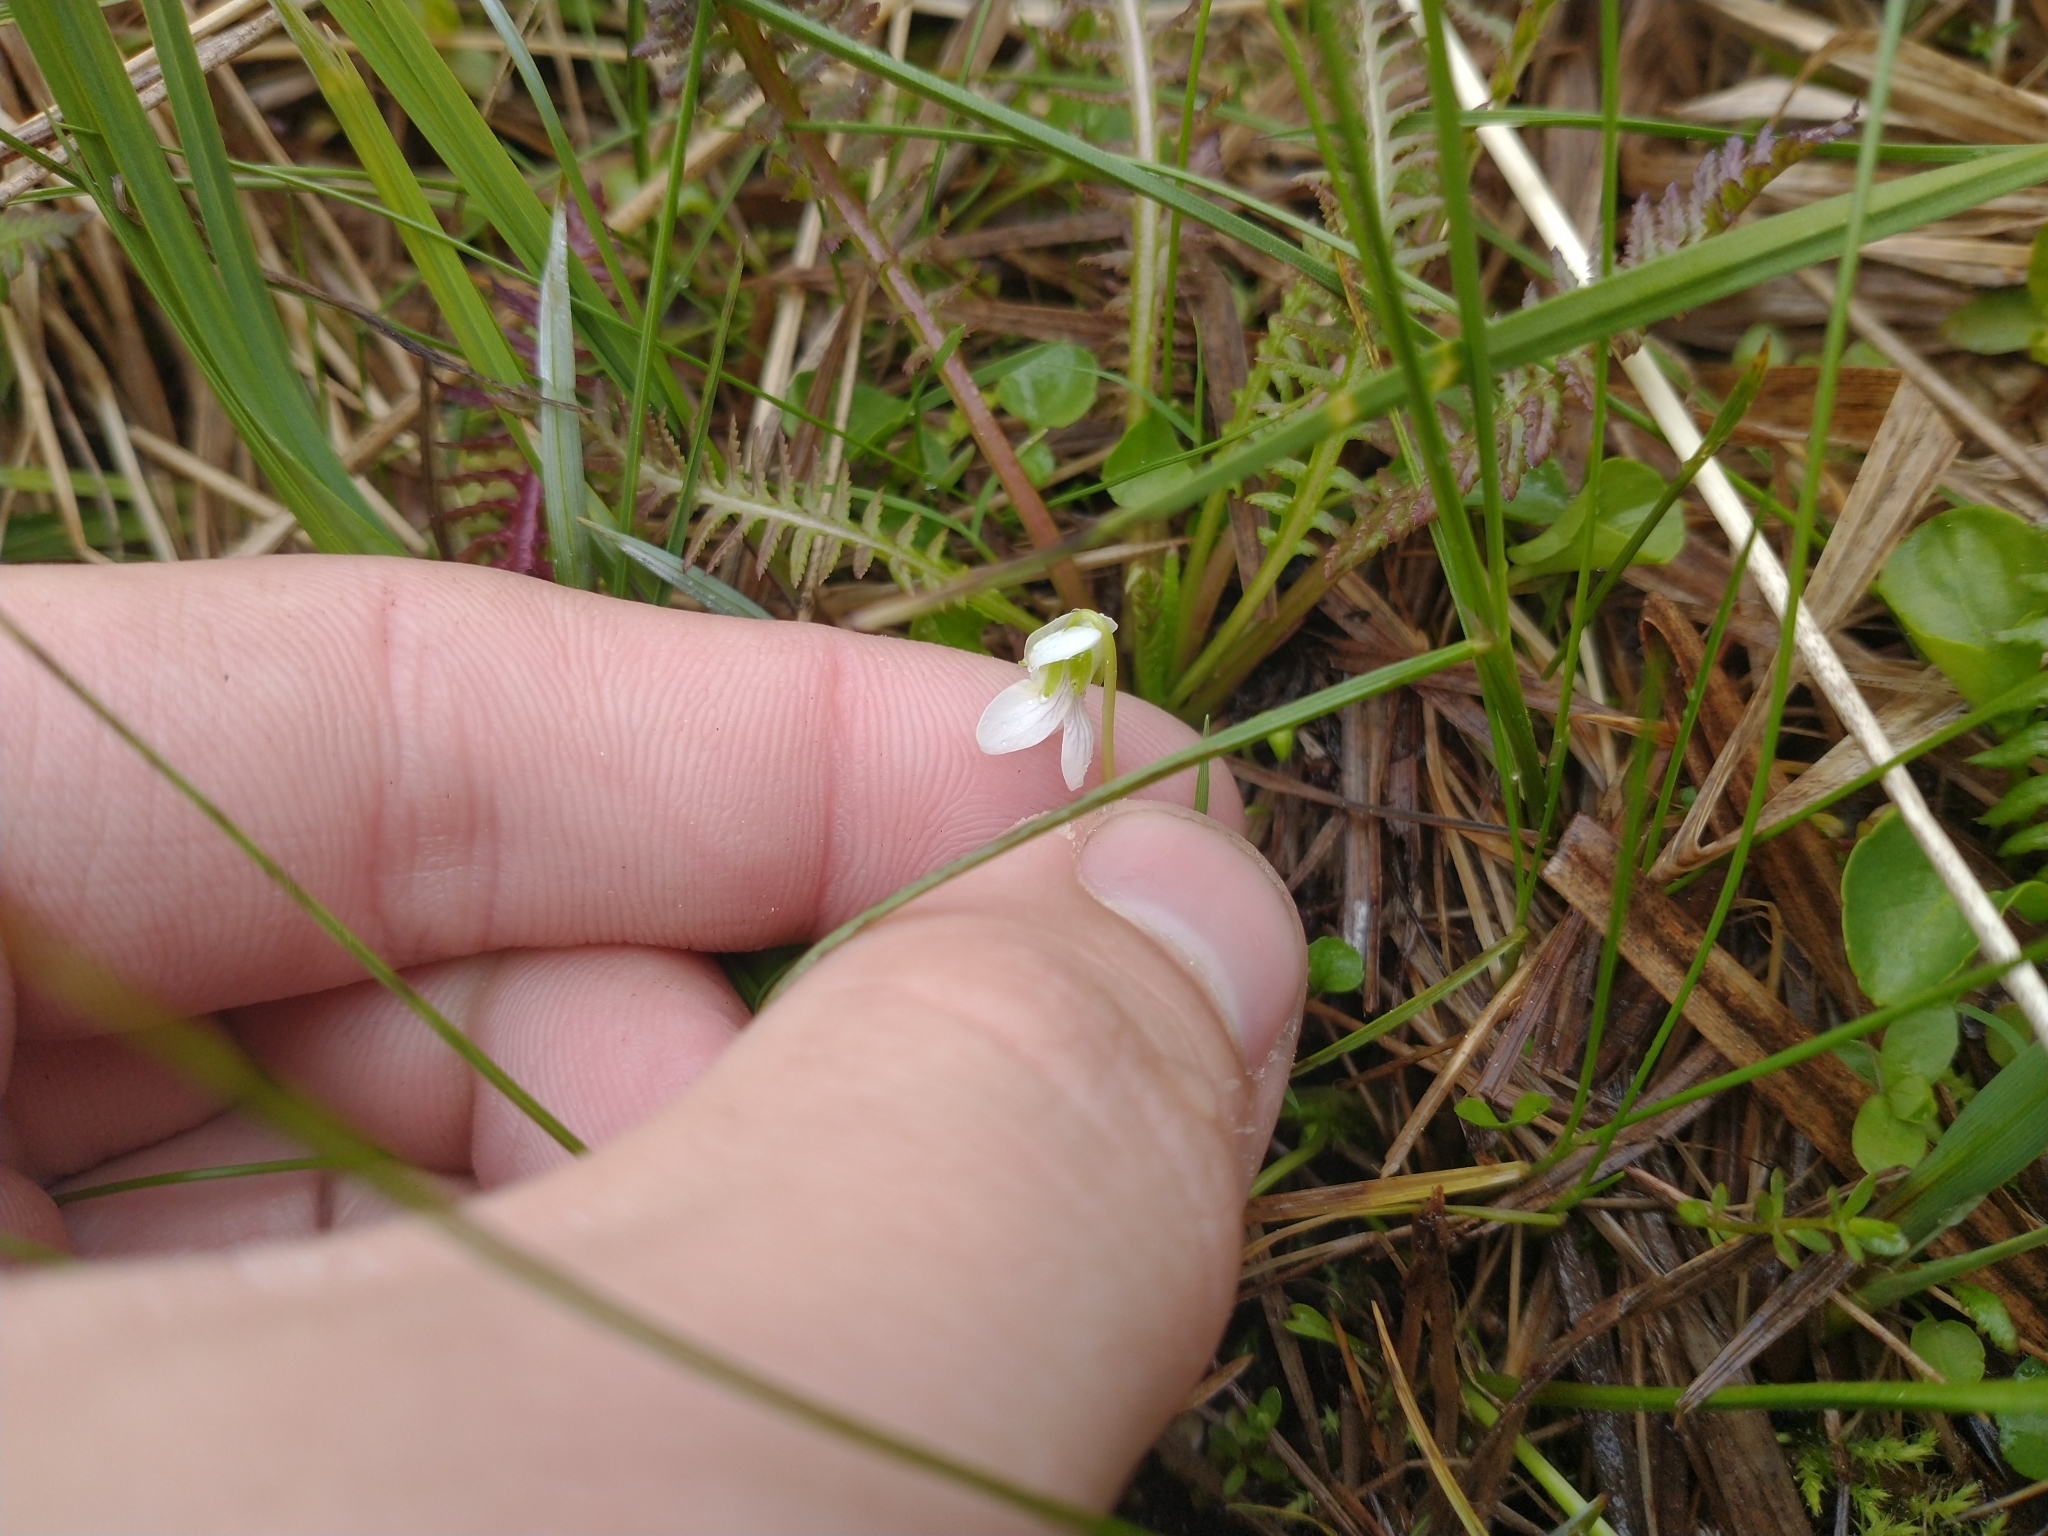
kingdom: Plantae
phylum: Tracheophyta
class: Magnoliopsida
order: Malpighiales
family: Violaceae
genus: Viola
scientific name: Viola macloskeyi
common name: Macloskey's violet
